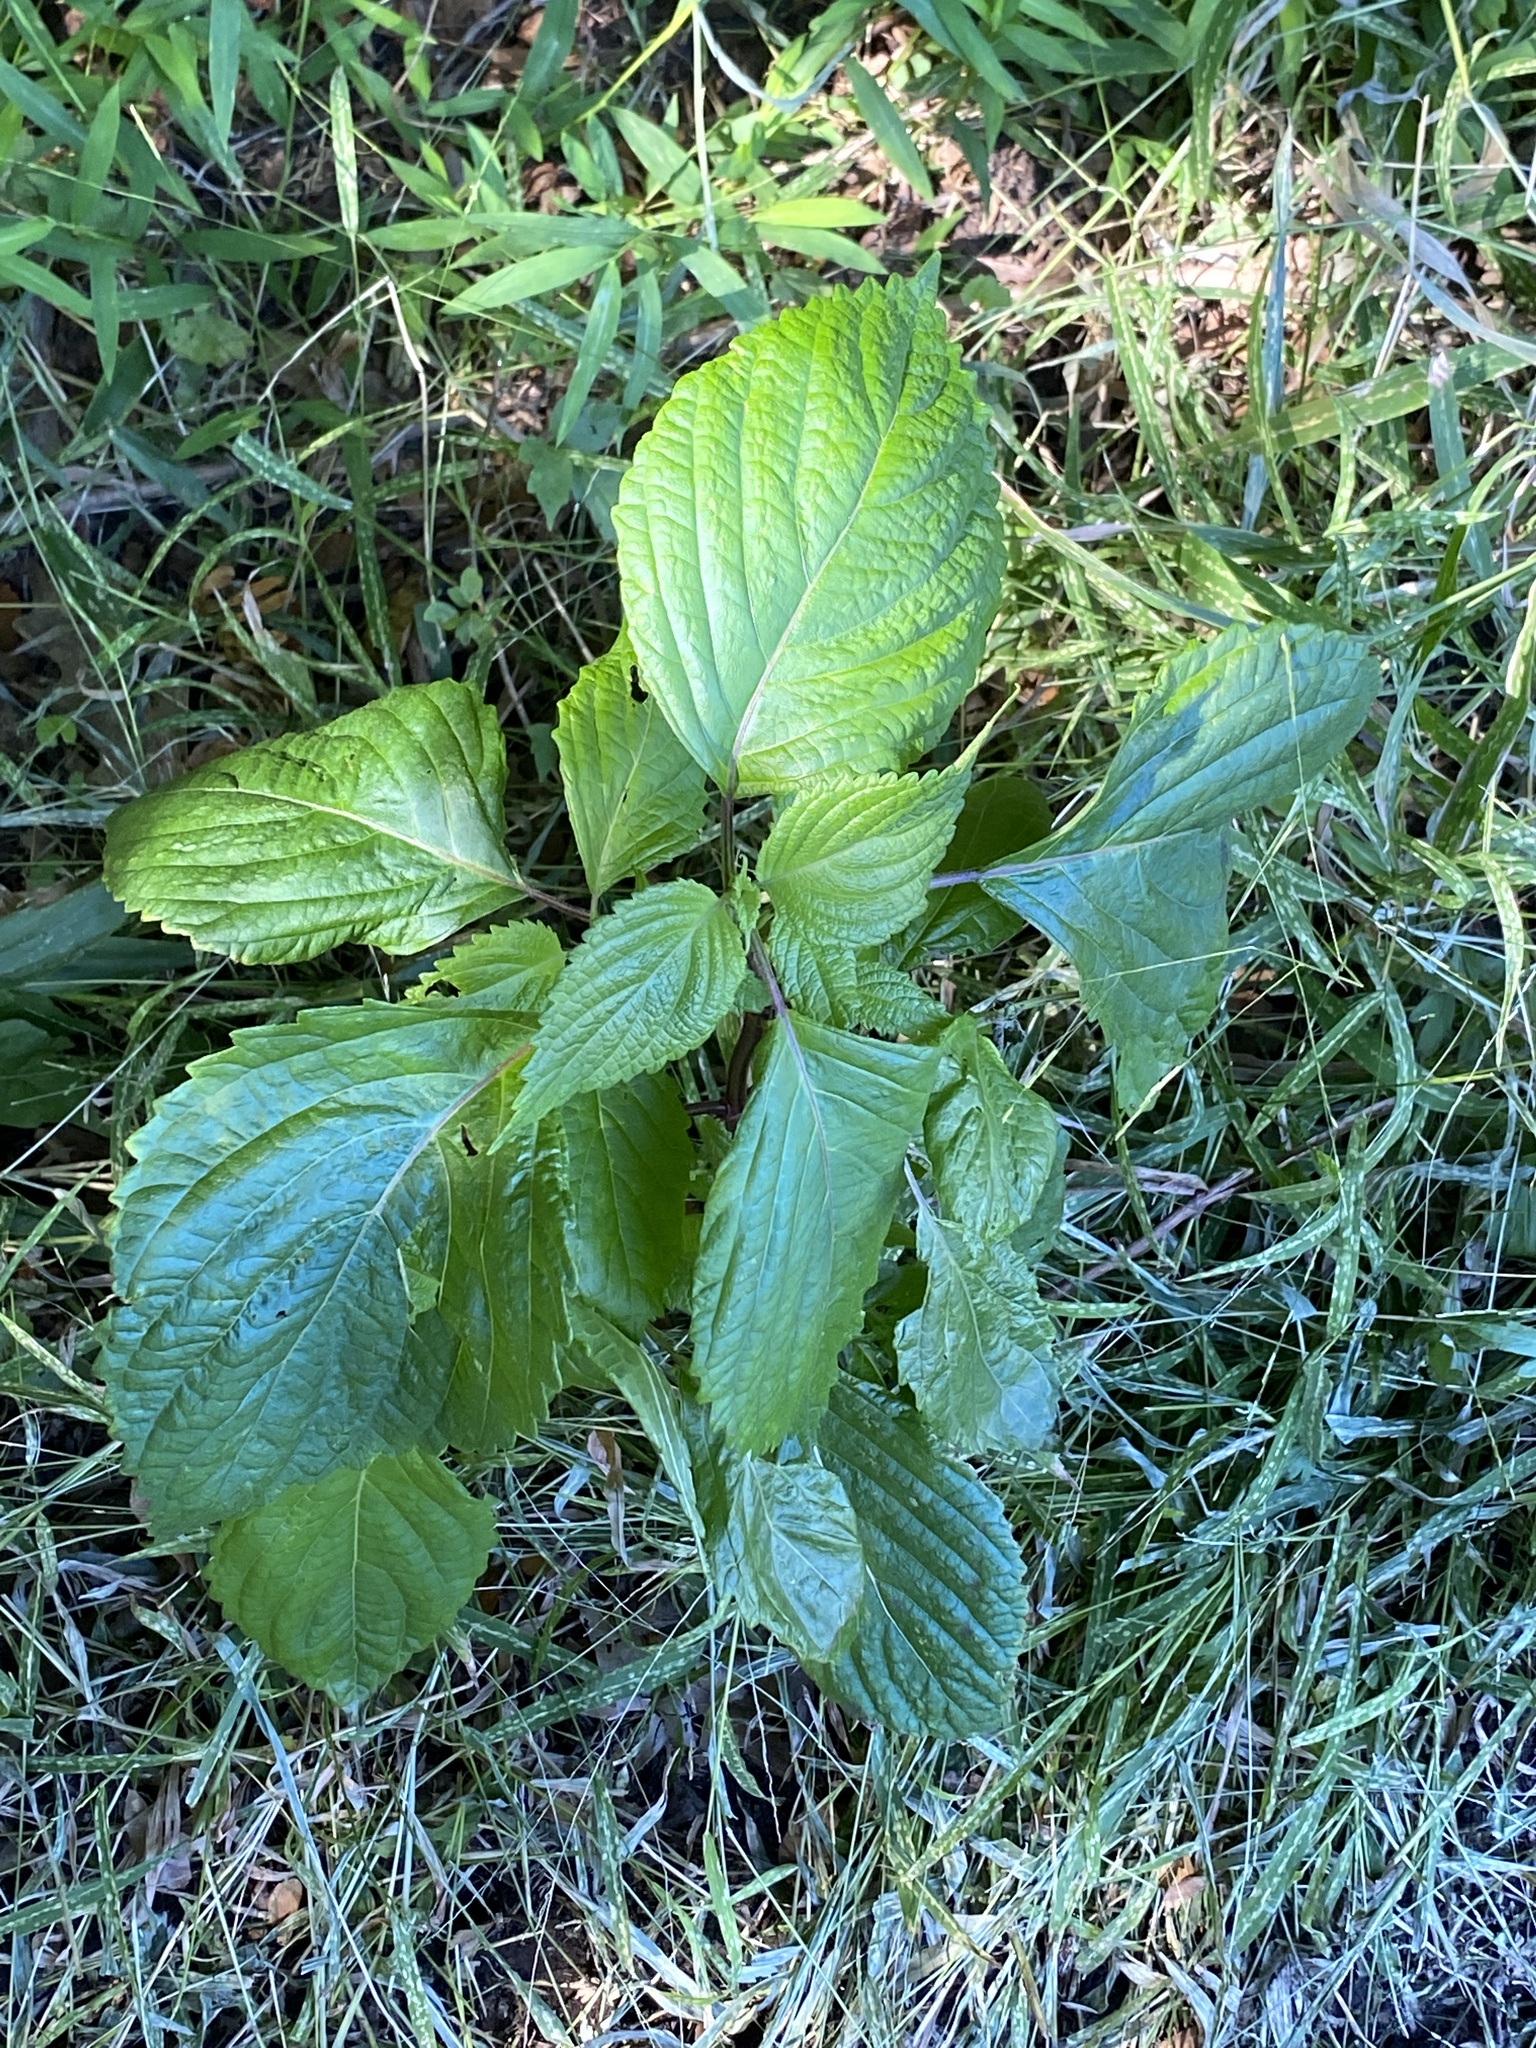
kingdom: Plantae
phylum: Tracheophyta
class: Magnoliopsida
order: Lamiales
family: Lamiaceae
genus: Perilla
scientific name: Perilla frutescens
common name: Perilla
